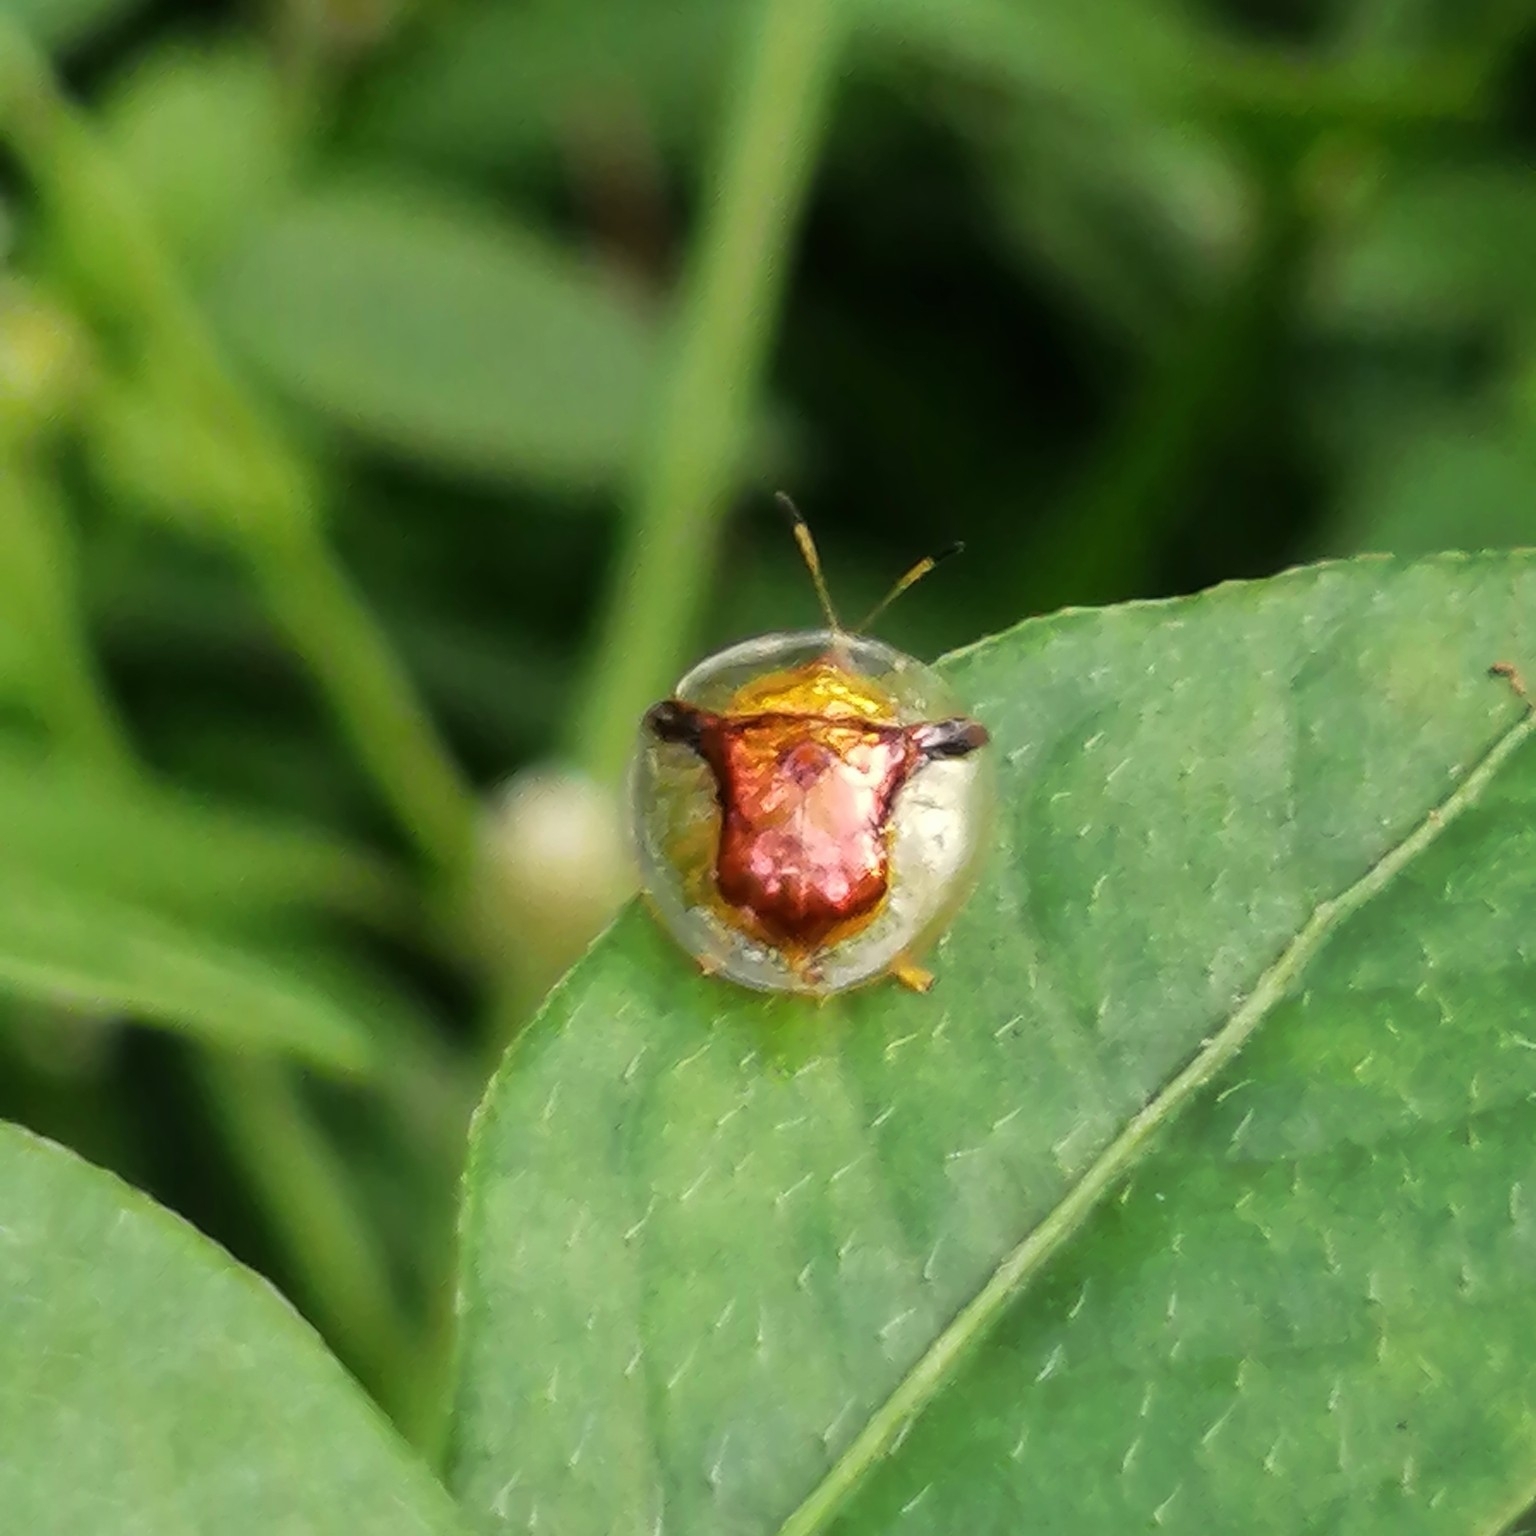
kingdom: Animalia
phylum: Arthropoda
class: Insecta
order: Coleoptera
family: Chrysomelidae
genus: Aspidimorpha
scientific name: Aspidimorpha furcata
